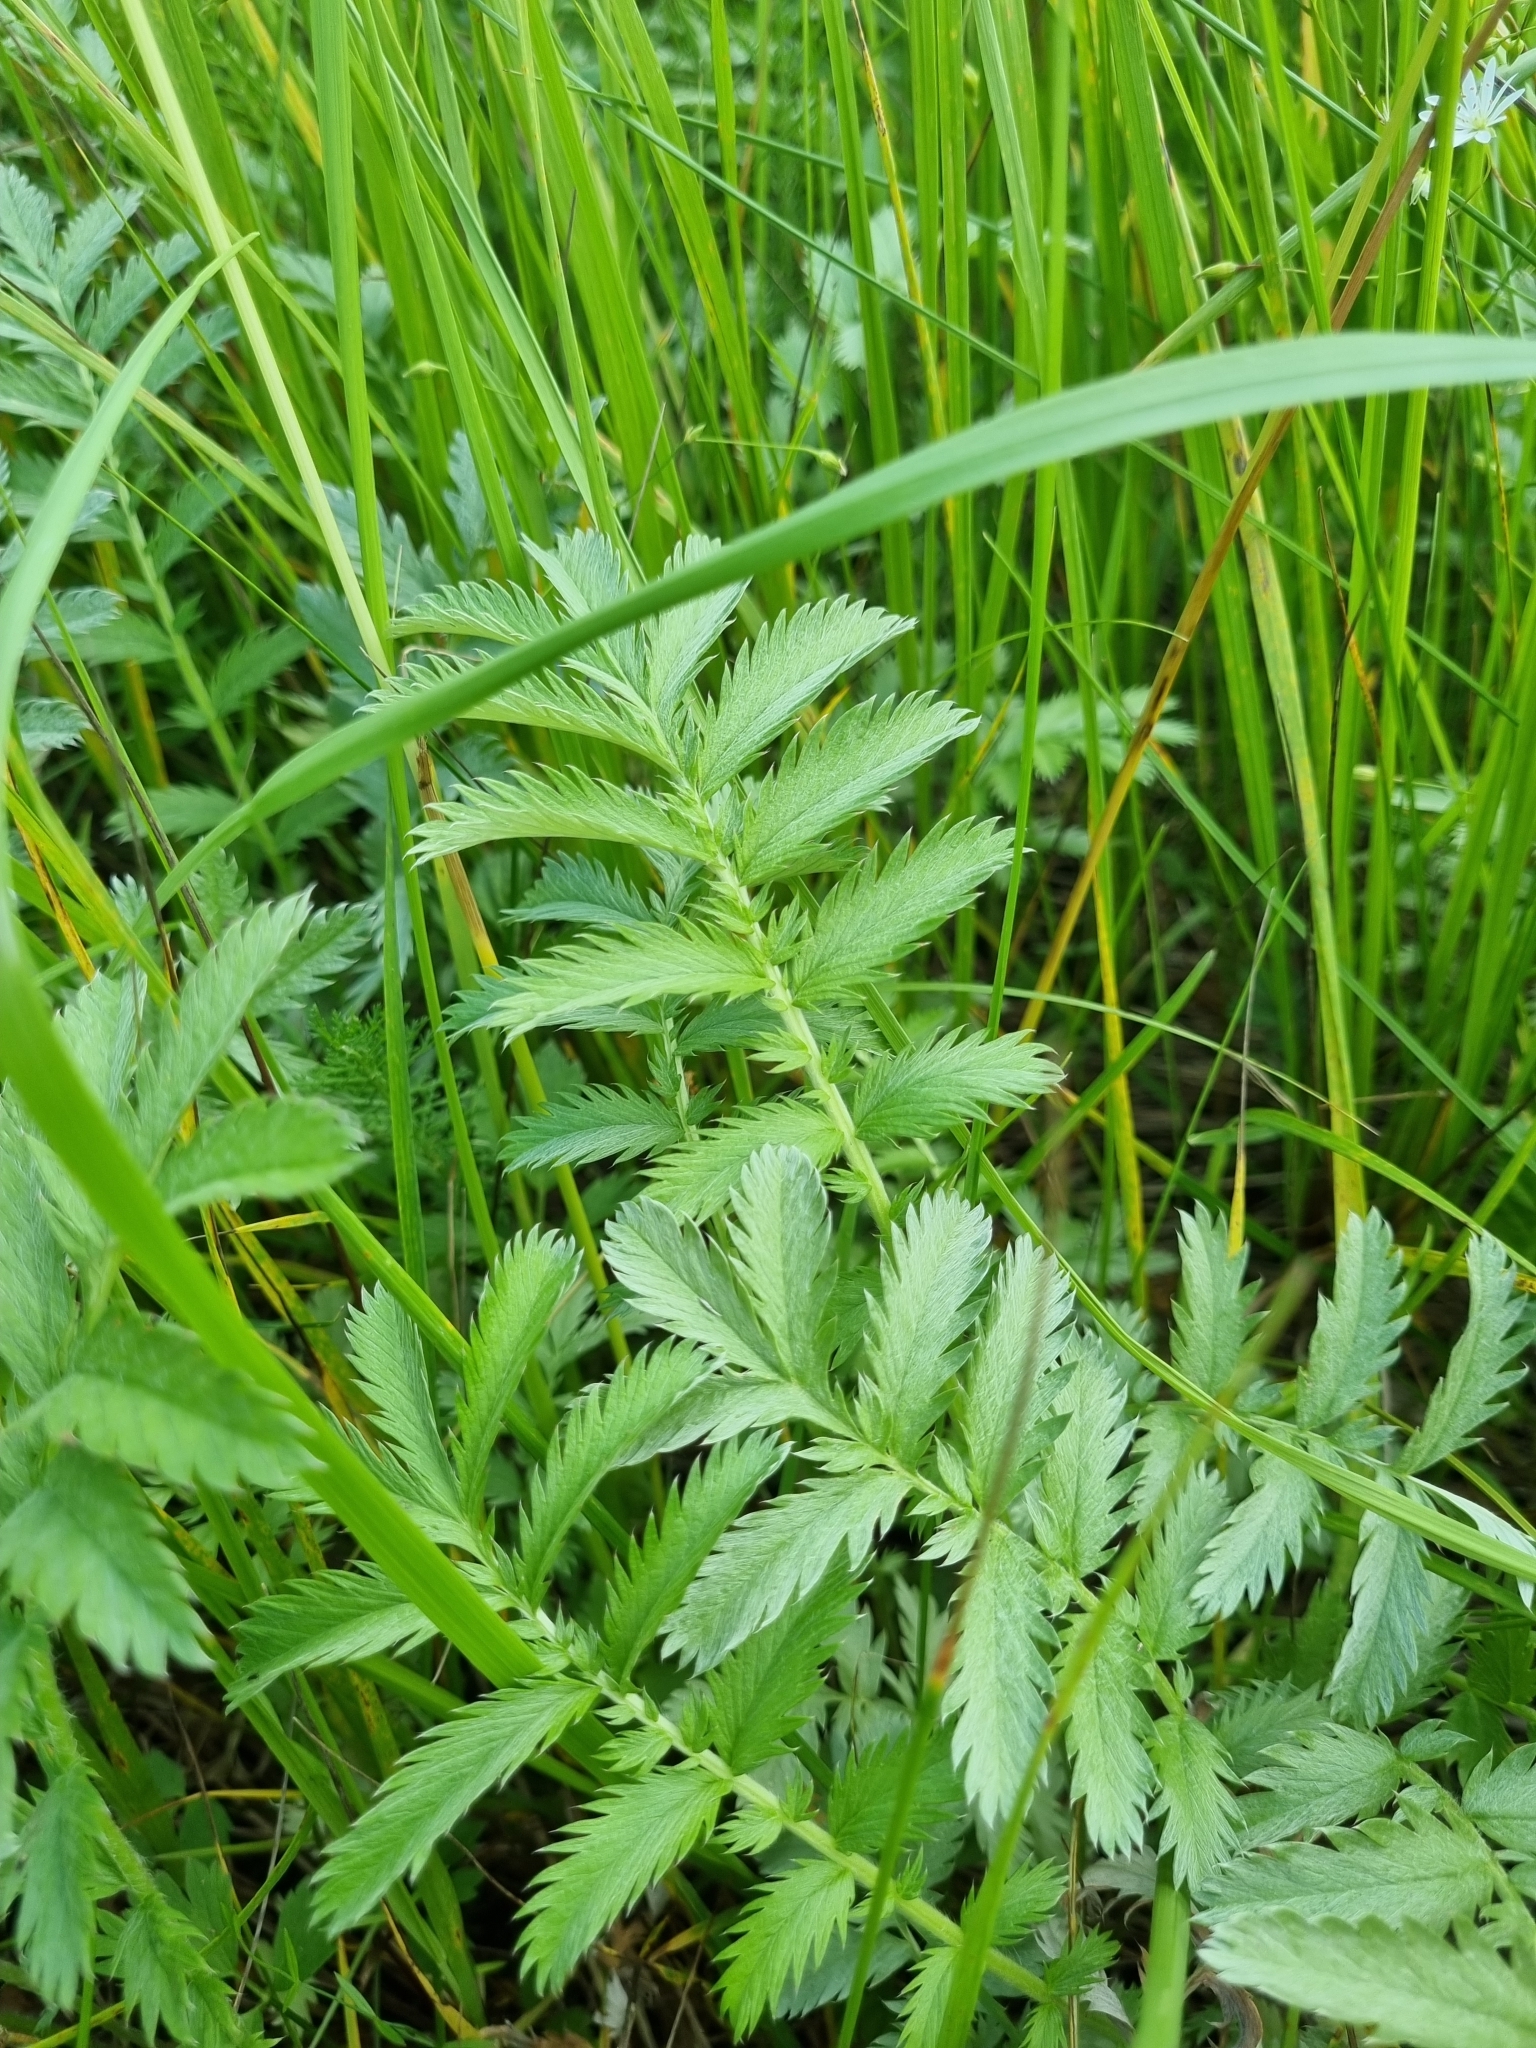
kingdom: Plantae
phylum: Tracheophyta
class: Magnoliopsida
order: Rosales
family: Rosaceae
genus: Argentina
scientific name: Argentina anserina
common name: Common silverweed
